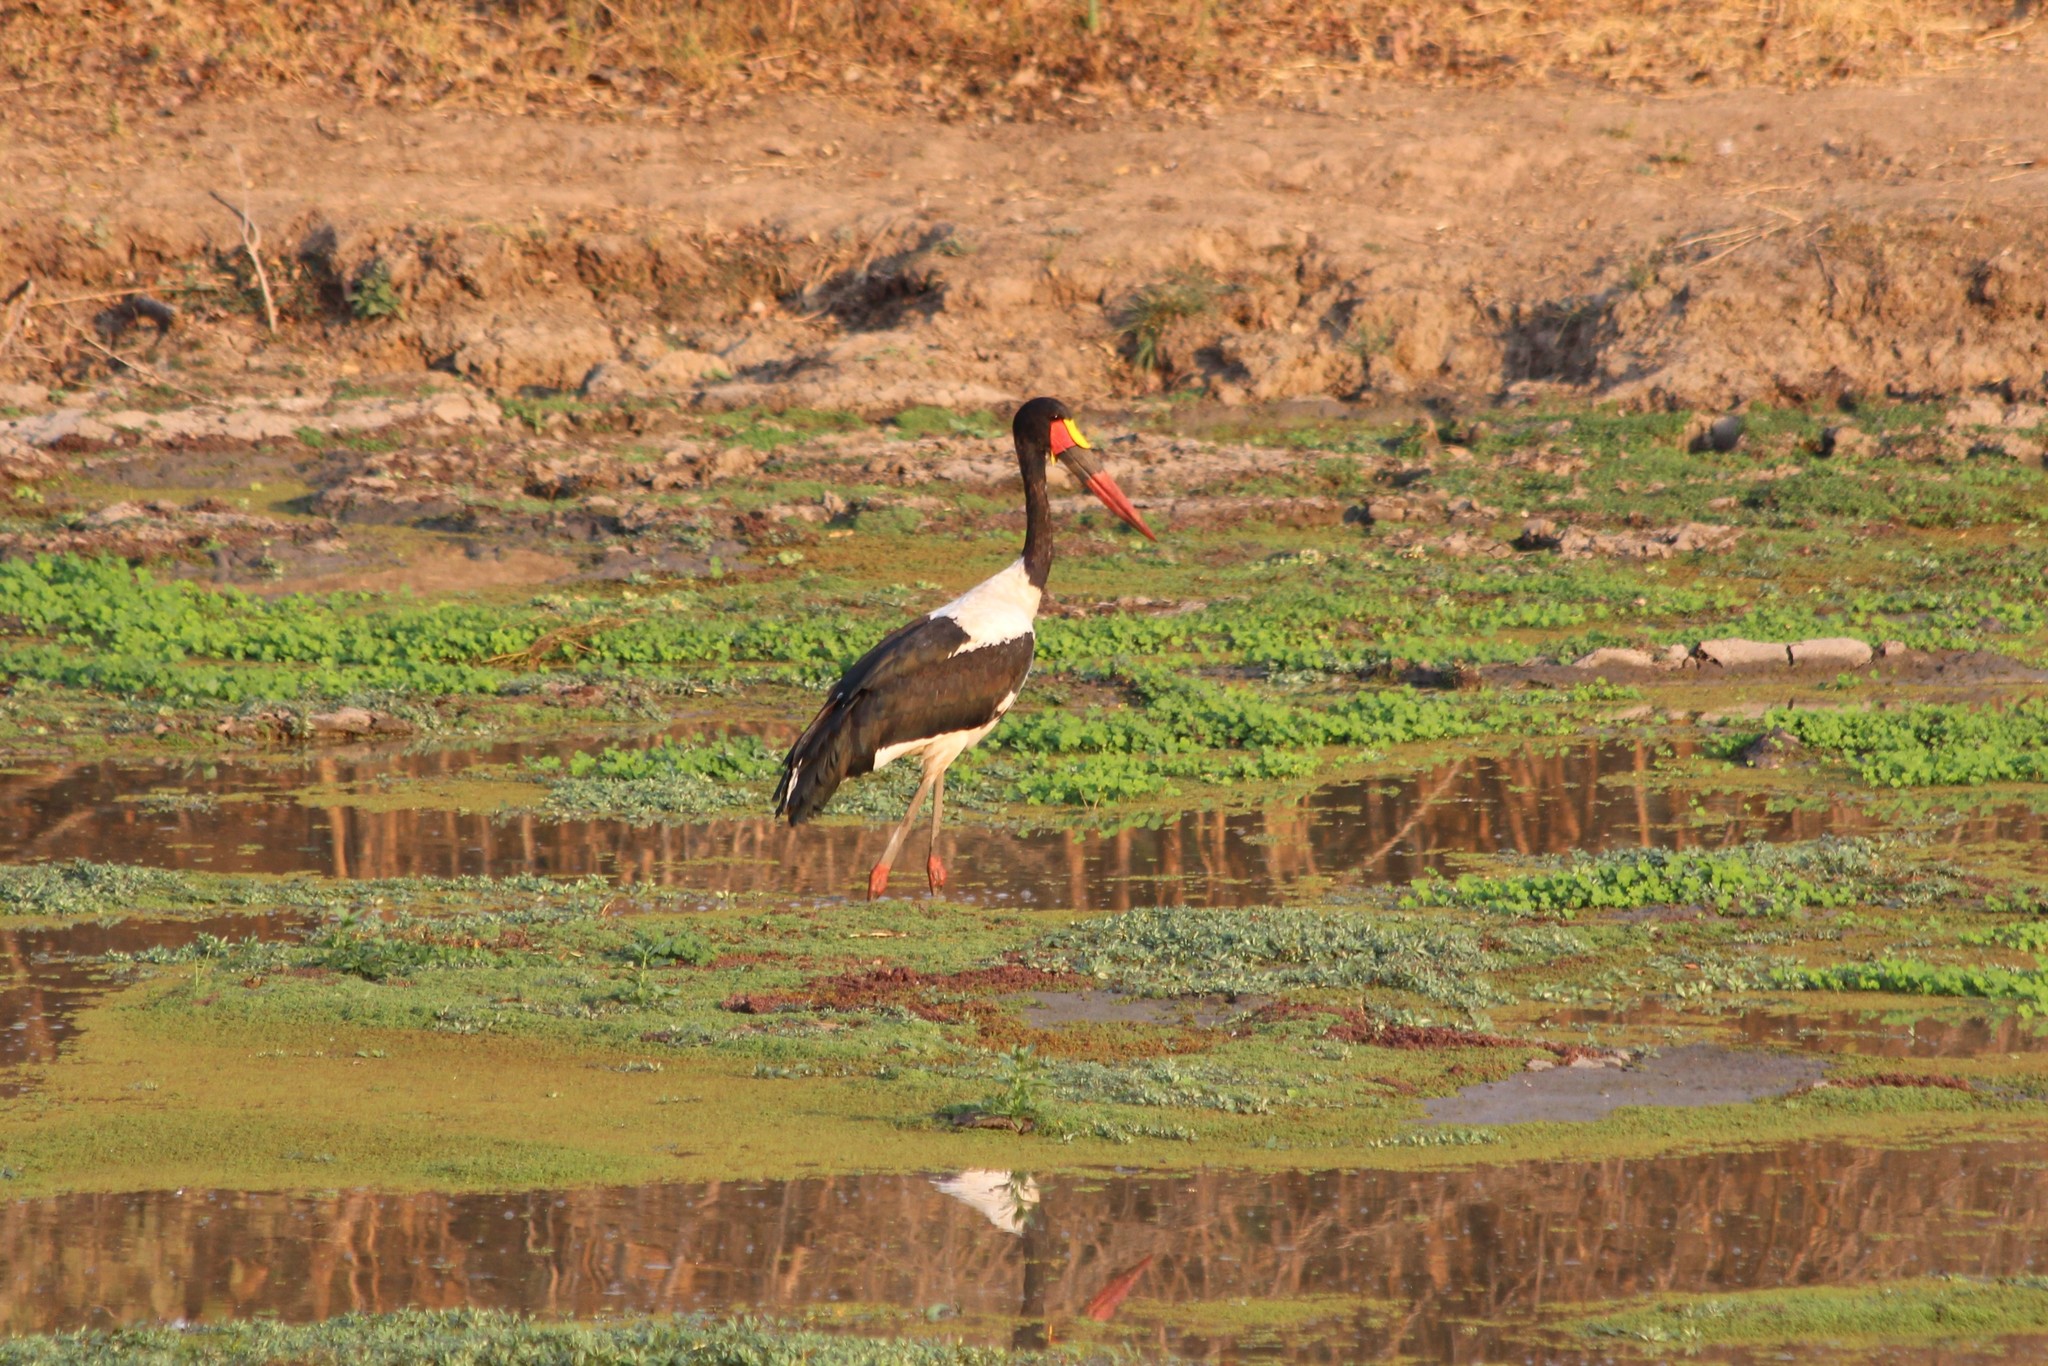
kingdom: Animalia
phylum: Chordata
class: Aves
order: Ciconiiformes
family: Ciconiidae
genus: Ephippiorhynchus
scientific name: Ephippiorhynchus senegalensis
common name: Saddle-billed stork
